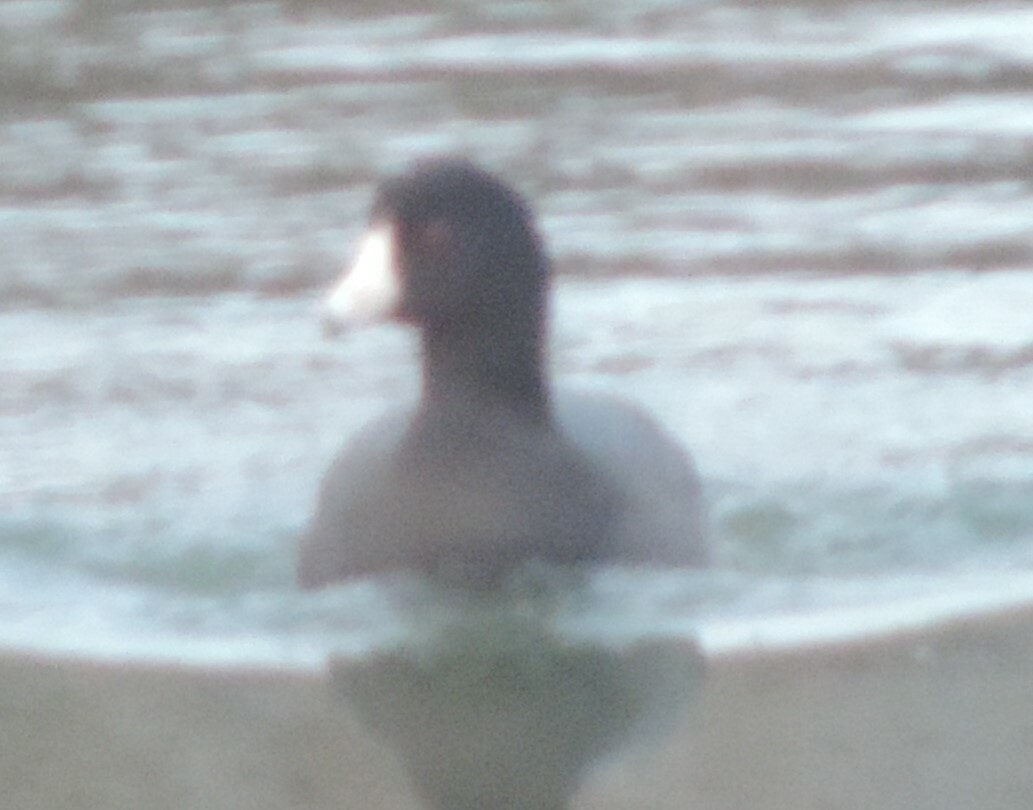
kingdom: Animalia
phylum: Chordata
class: Aves
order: Gruiformes
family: Rallidae
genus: Fulica
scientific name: Fulica americana
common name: American coot
